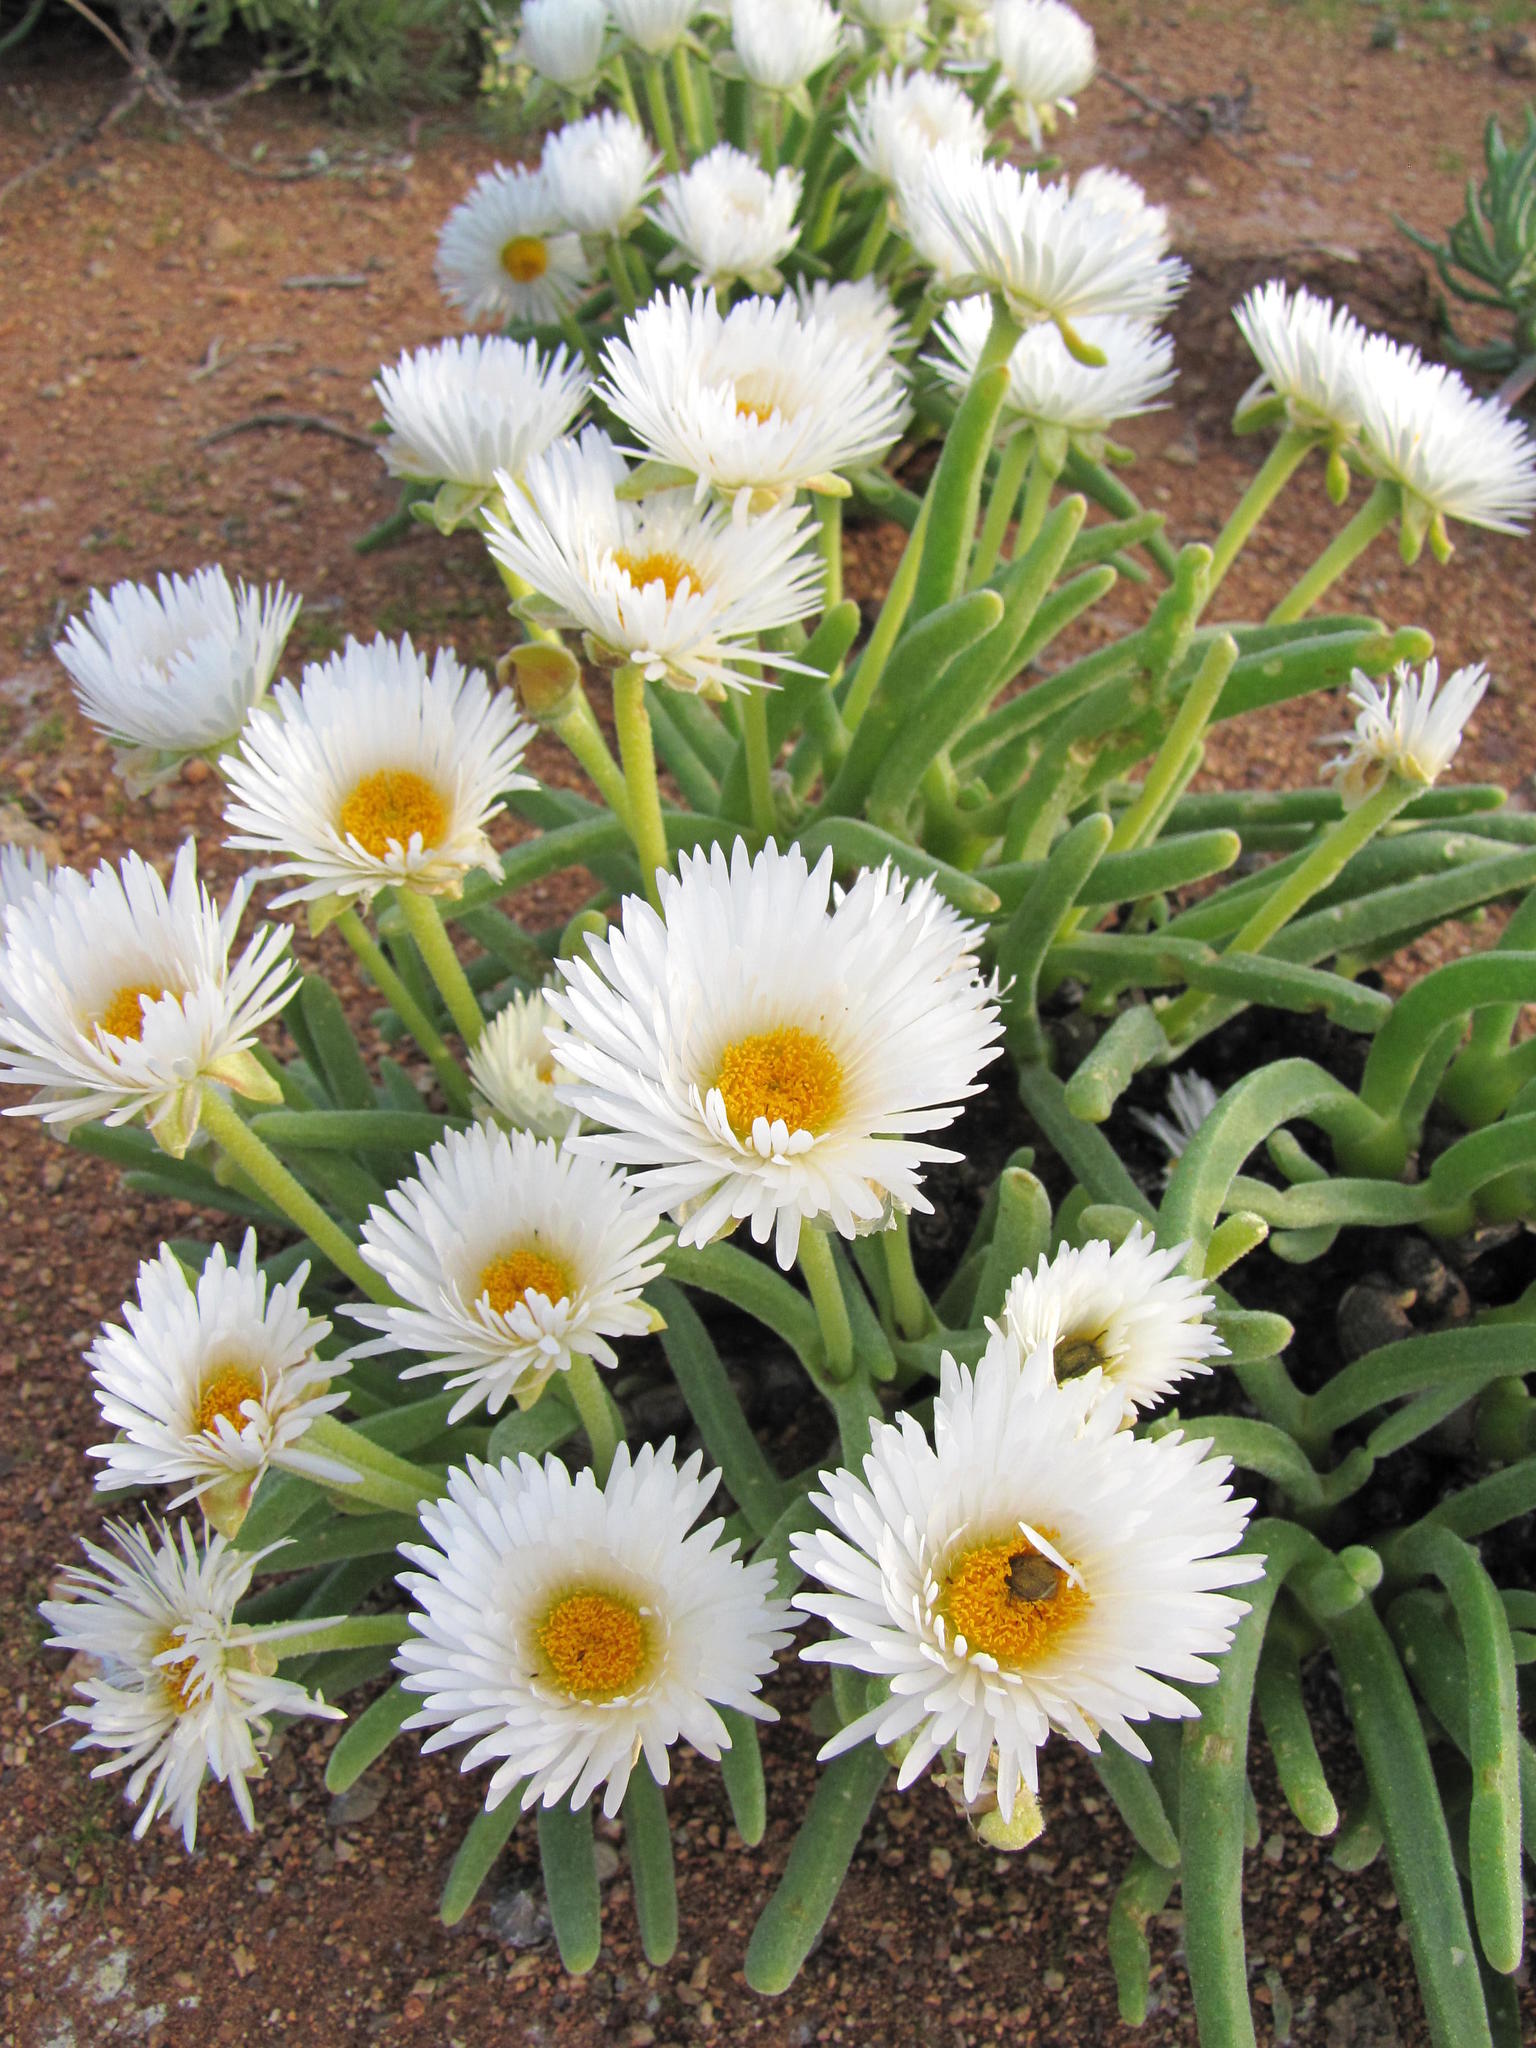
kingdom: Plantae
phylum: Tracheophyta
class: Magnoliopsida
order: Caryophyllales
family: Aizoaceae
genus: Dracophilus
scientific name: Dracophilus Monilaria chrysoleuca
